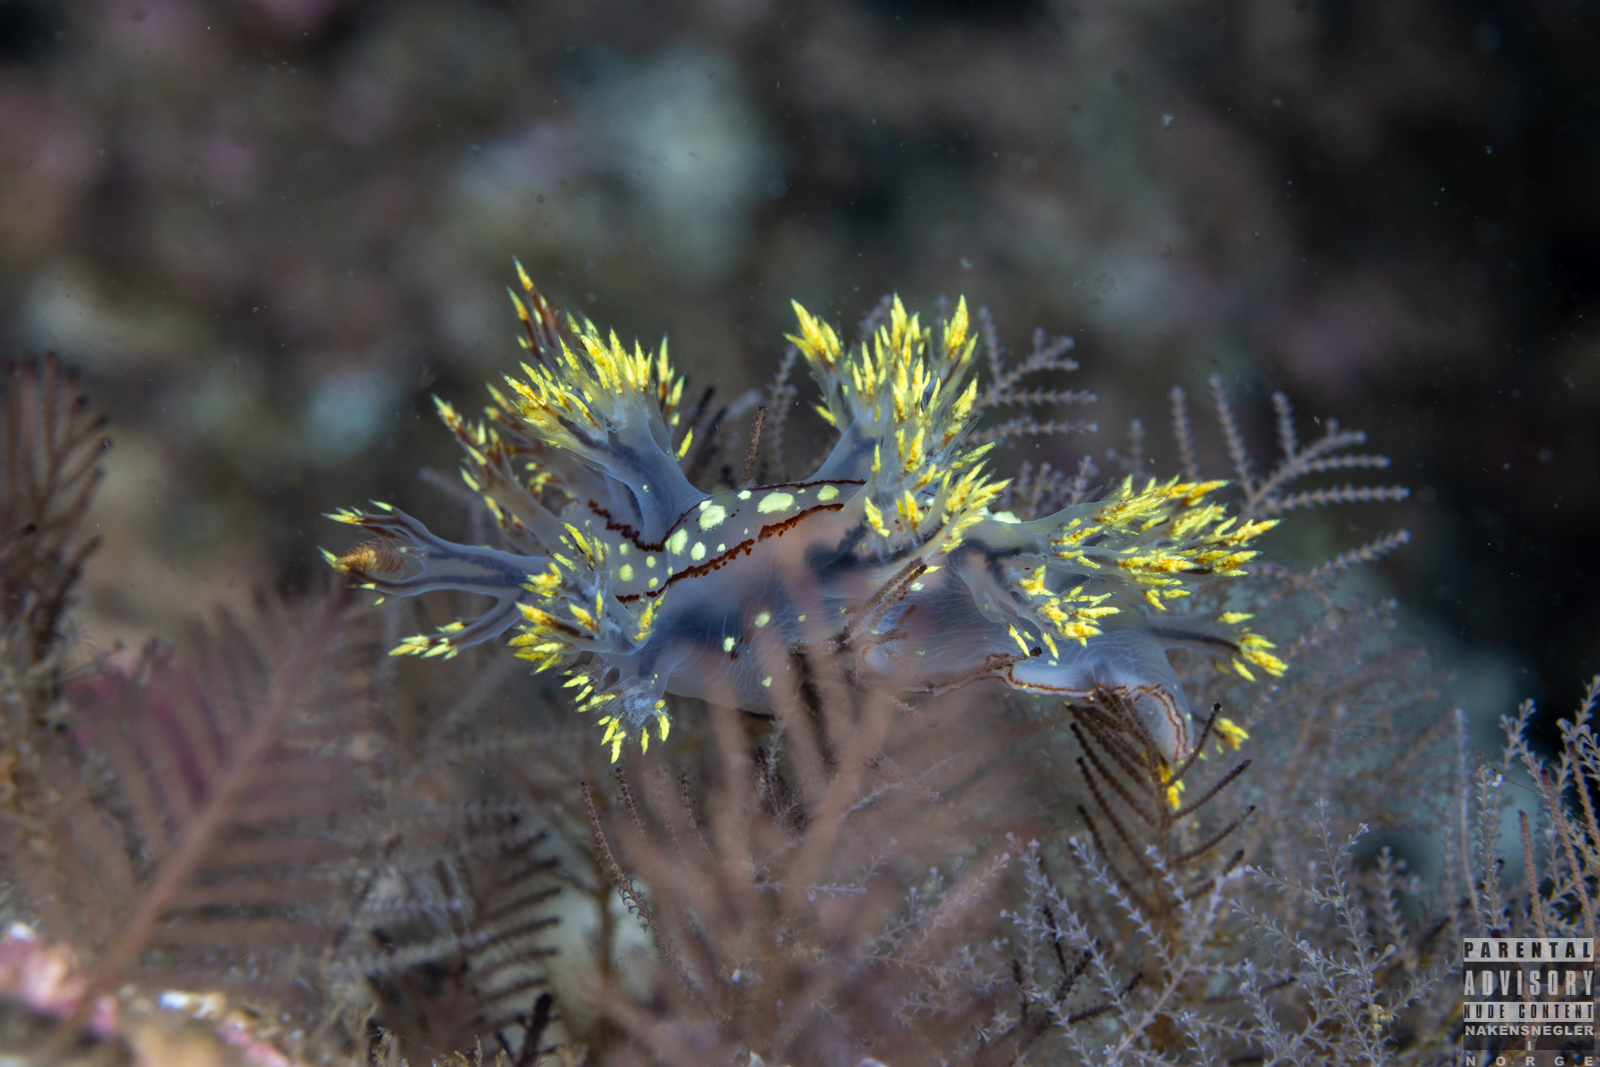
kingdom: Animalia
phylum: Mollusca
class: Gastropoda
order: Nudibranchia
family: Dendronotidae
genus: Dendronotus
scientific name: Dendronotus yrjargul
